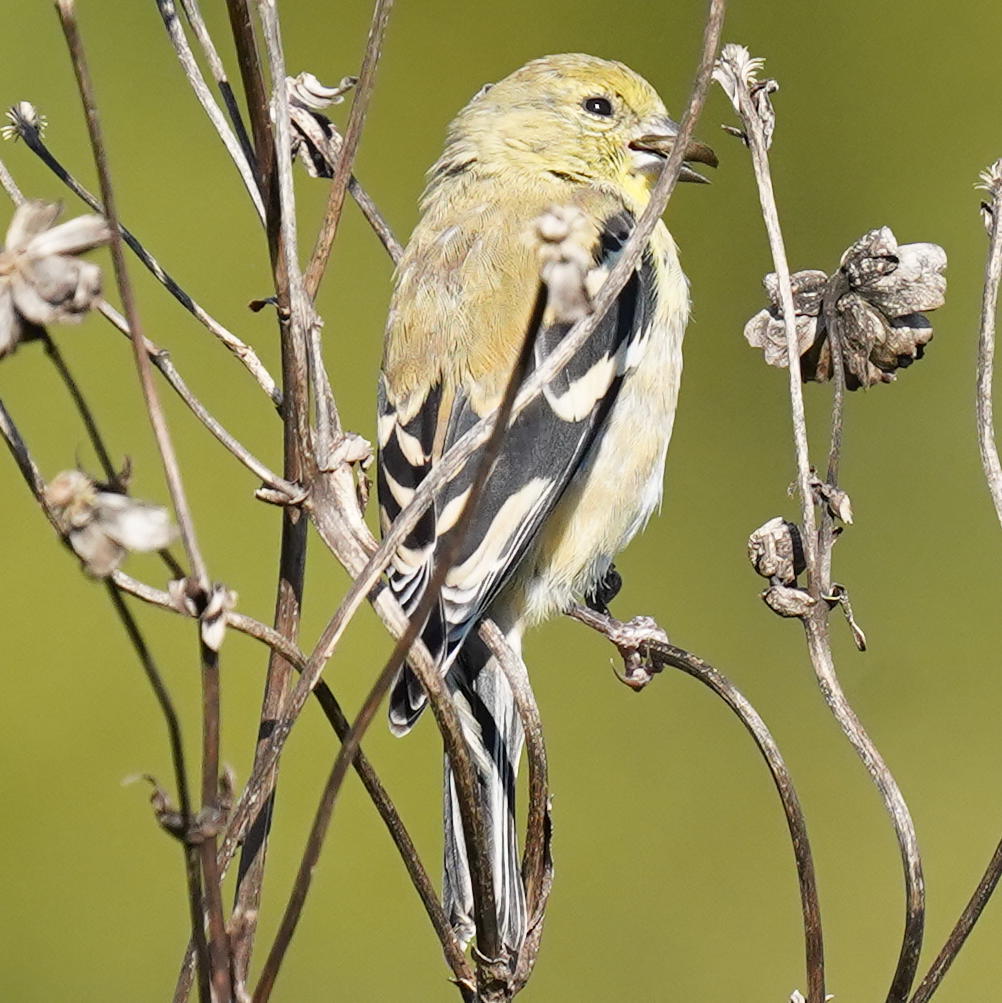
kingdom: Animalia
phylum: Chordata
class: Aves
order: Passeriformes
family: Fringillidae
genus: Spinus
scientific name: Spinus tristis
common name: American goldfinch
